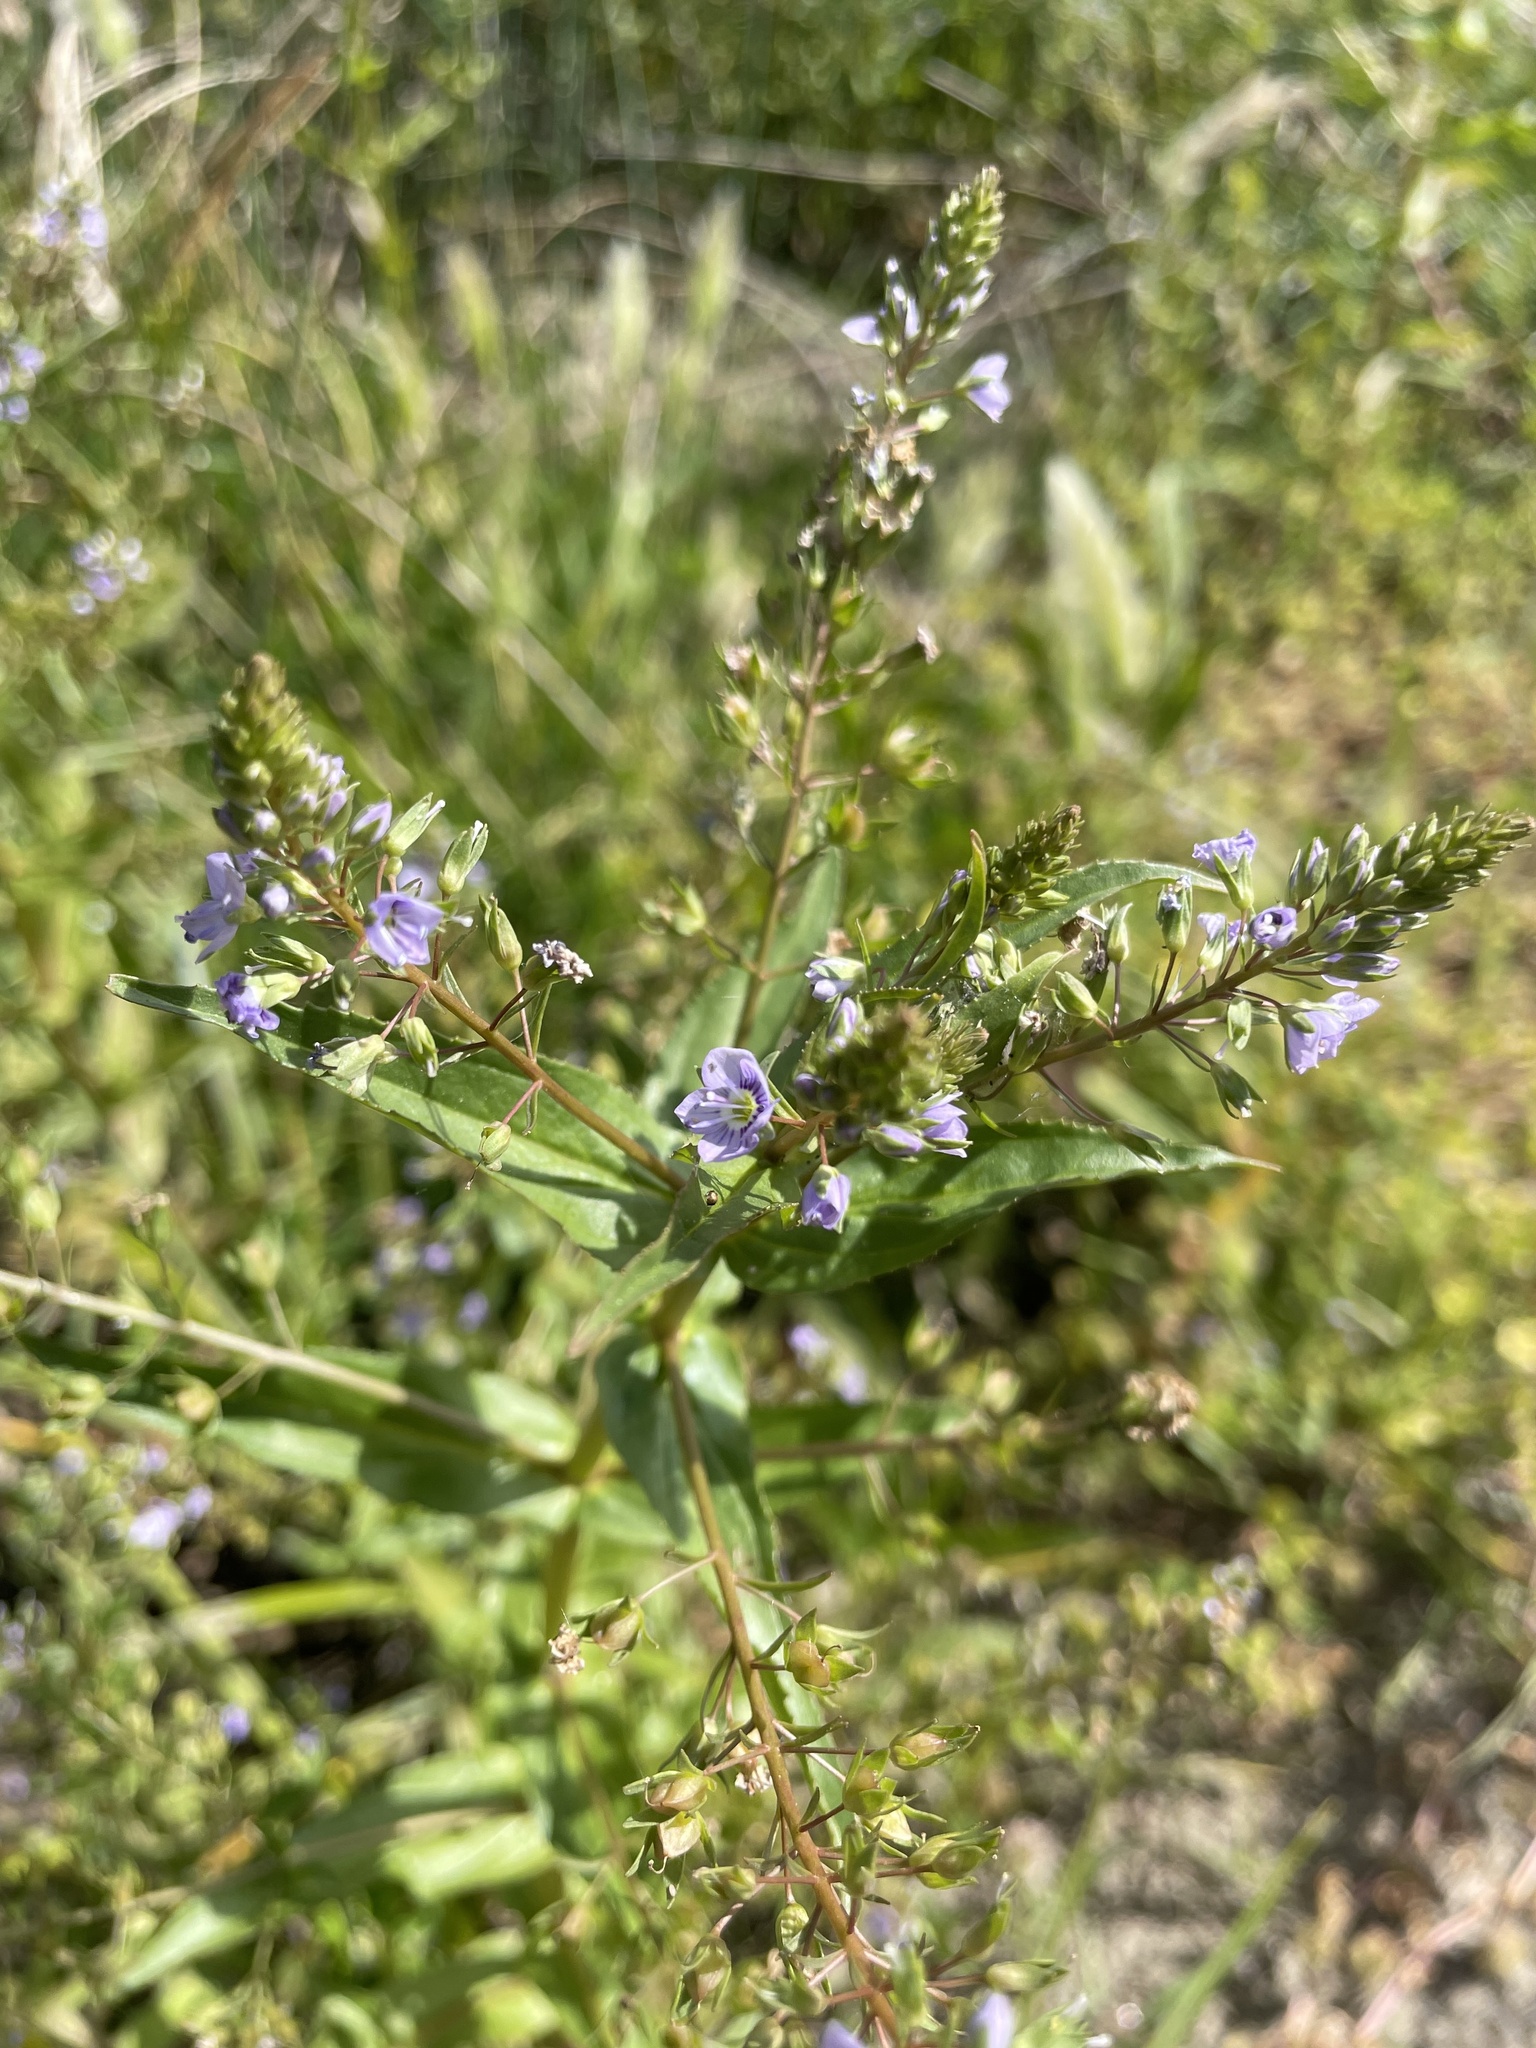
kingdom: Plantae
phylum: Tracheophyta
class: Magnoliopsida
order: Lamiales
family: Plantaginaceae
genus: Veronica
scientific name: Veronica anagallis-aquatica
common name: Water speedwell
